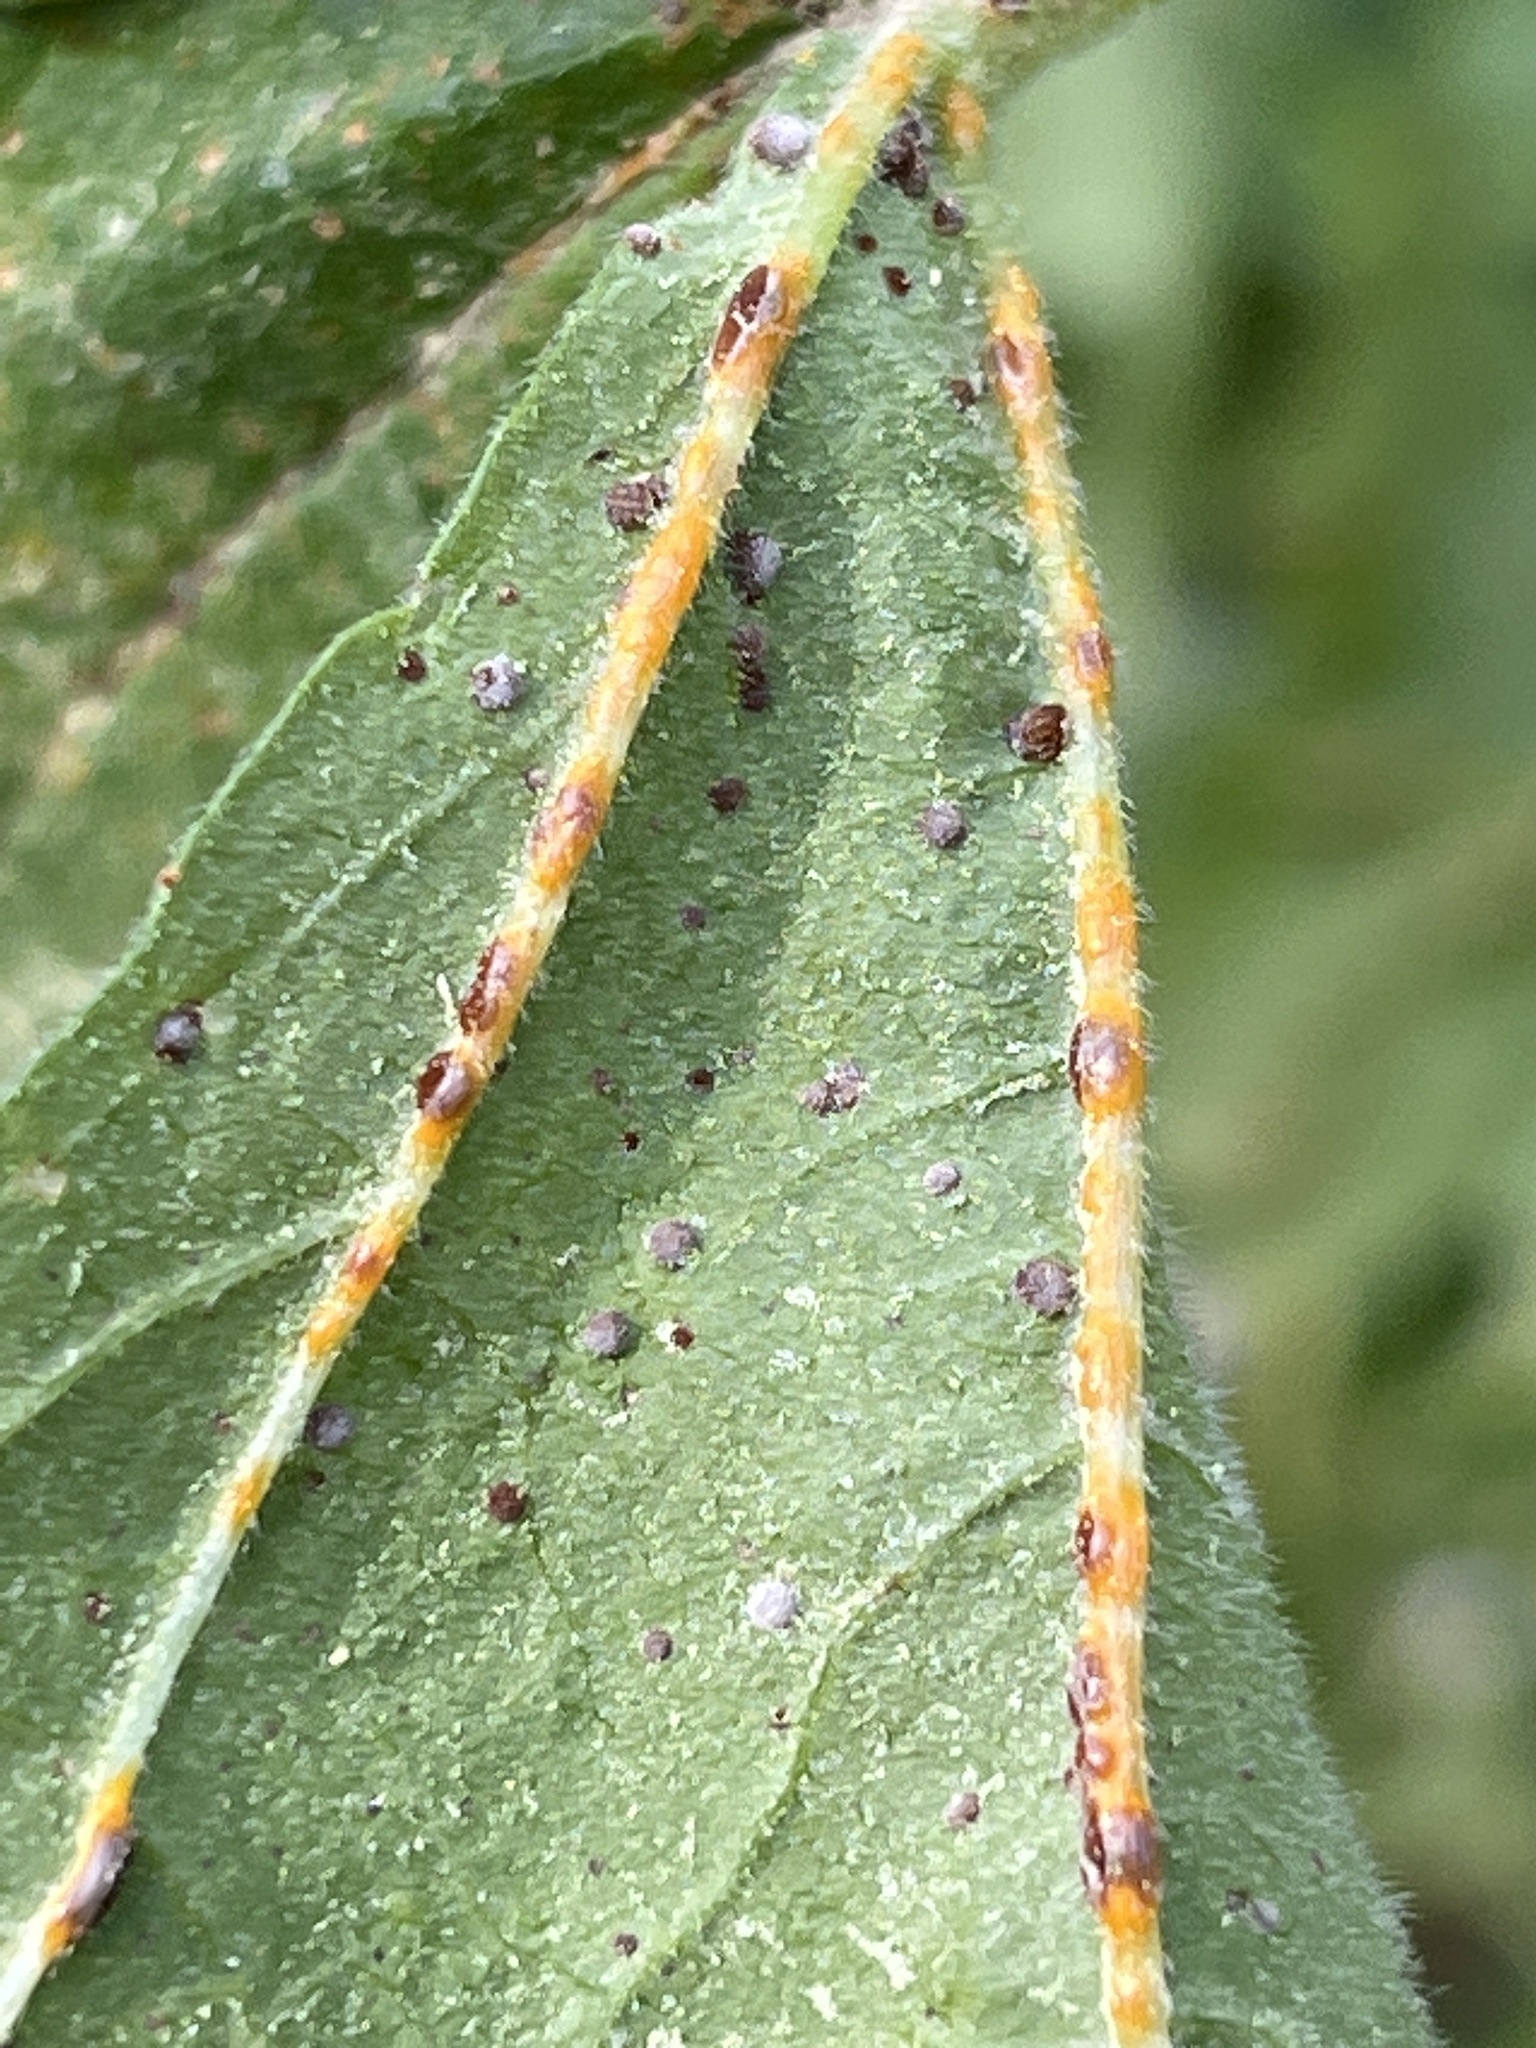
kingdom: Fungi
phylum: Basidiomycota
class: Pucciniomycetes
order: Pucciniales
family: Pucciniaceae
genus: Puccinia
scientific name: Puccinia malvacearum
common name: Hollyhock rust
